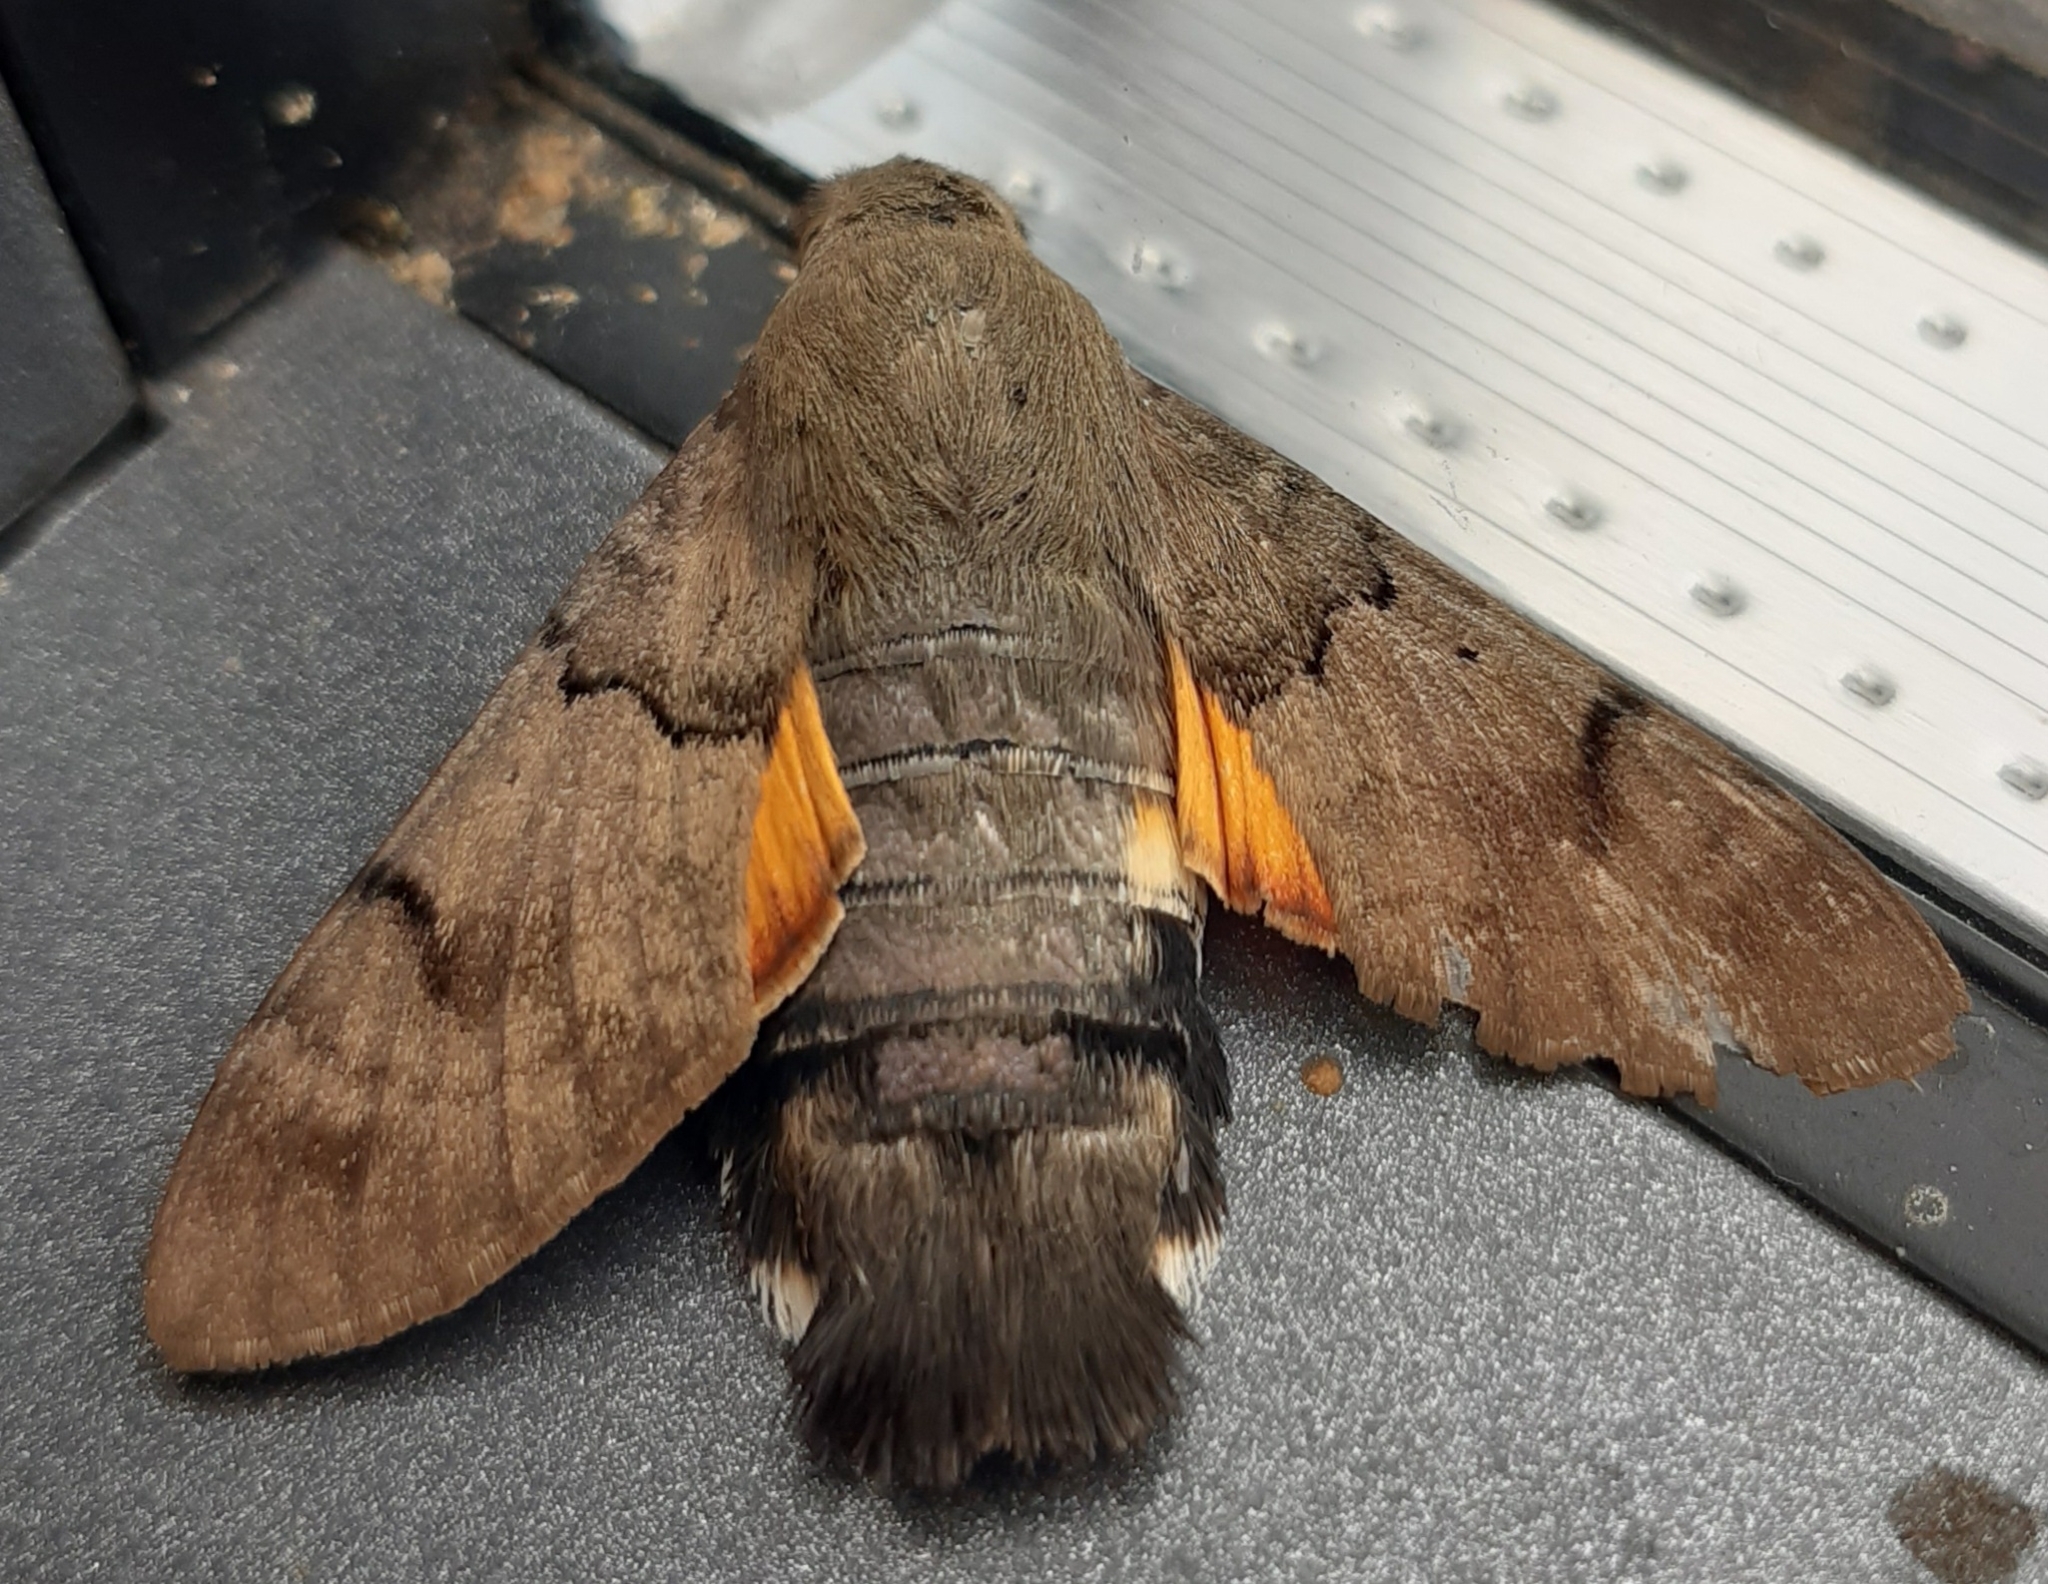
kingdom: Animalia
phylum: Arthropoda
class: Insecta
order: Lepidoptera
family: Sphingidae
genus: Macroglossum
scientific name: Macroglossum stellatarum
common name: Humming-bird hawk-moth
